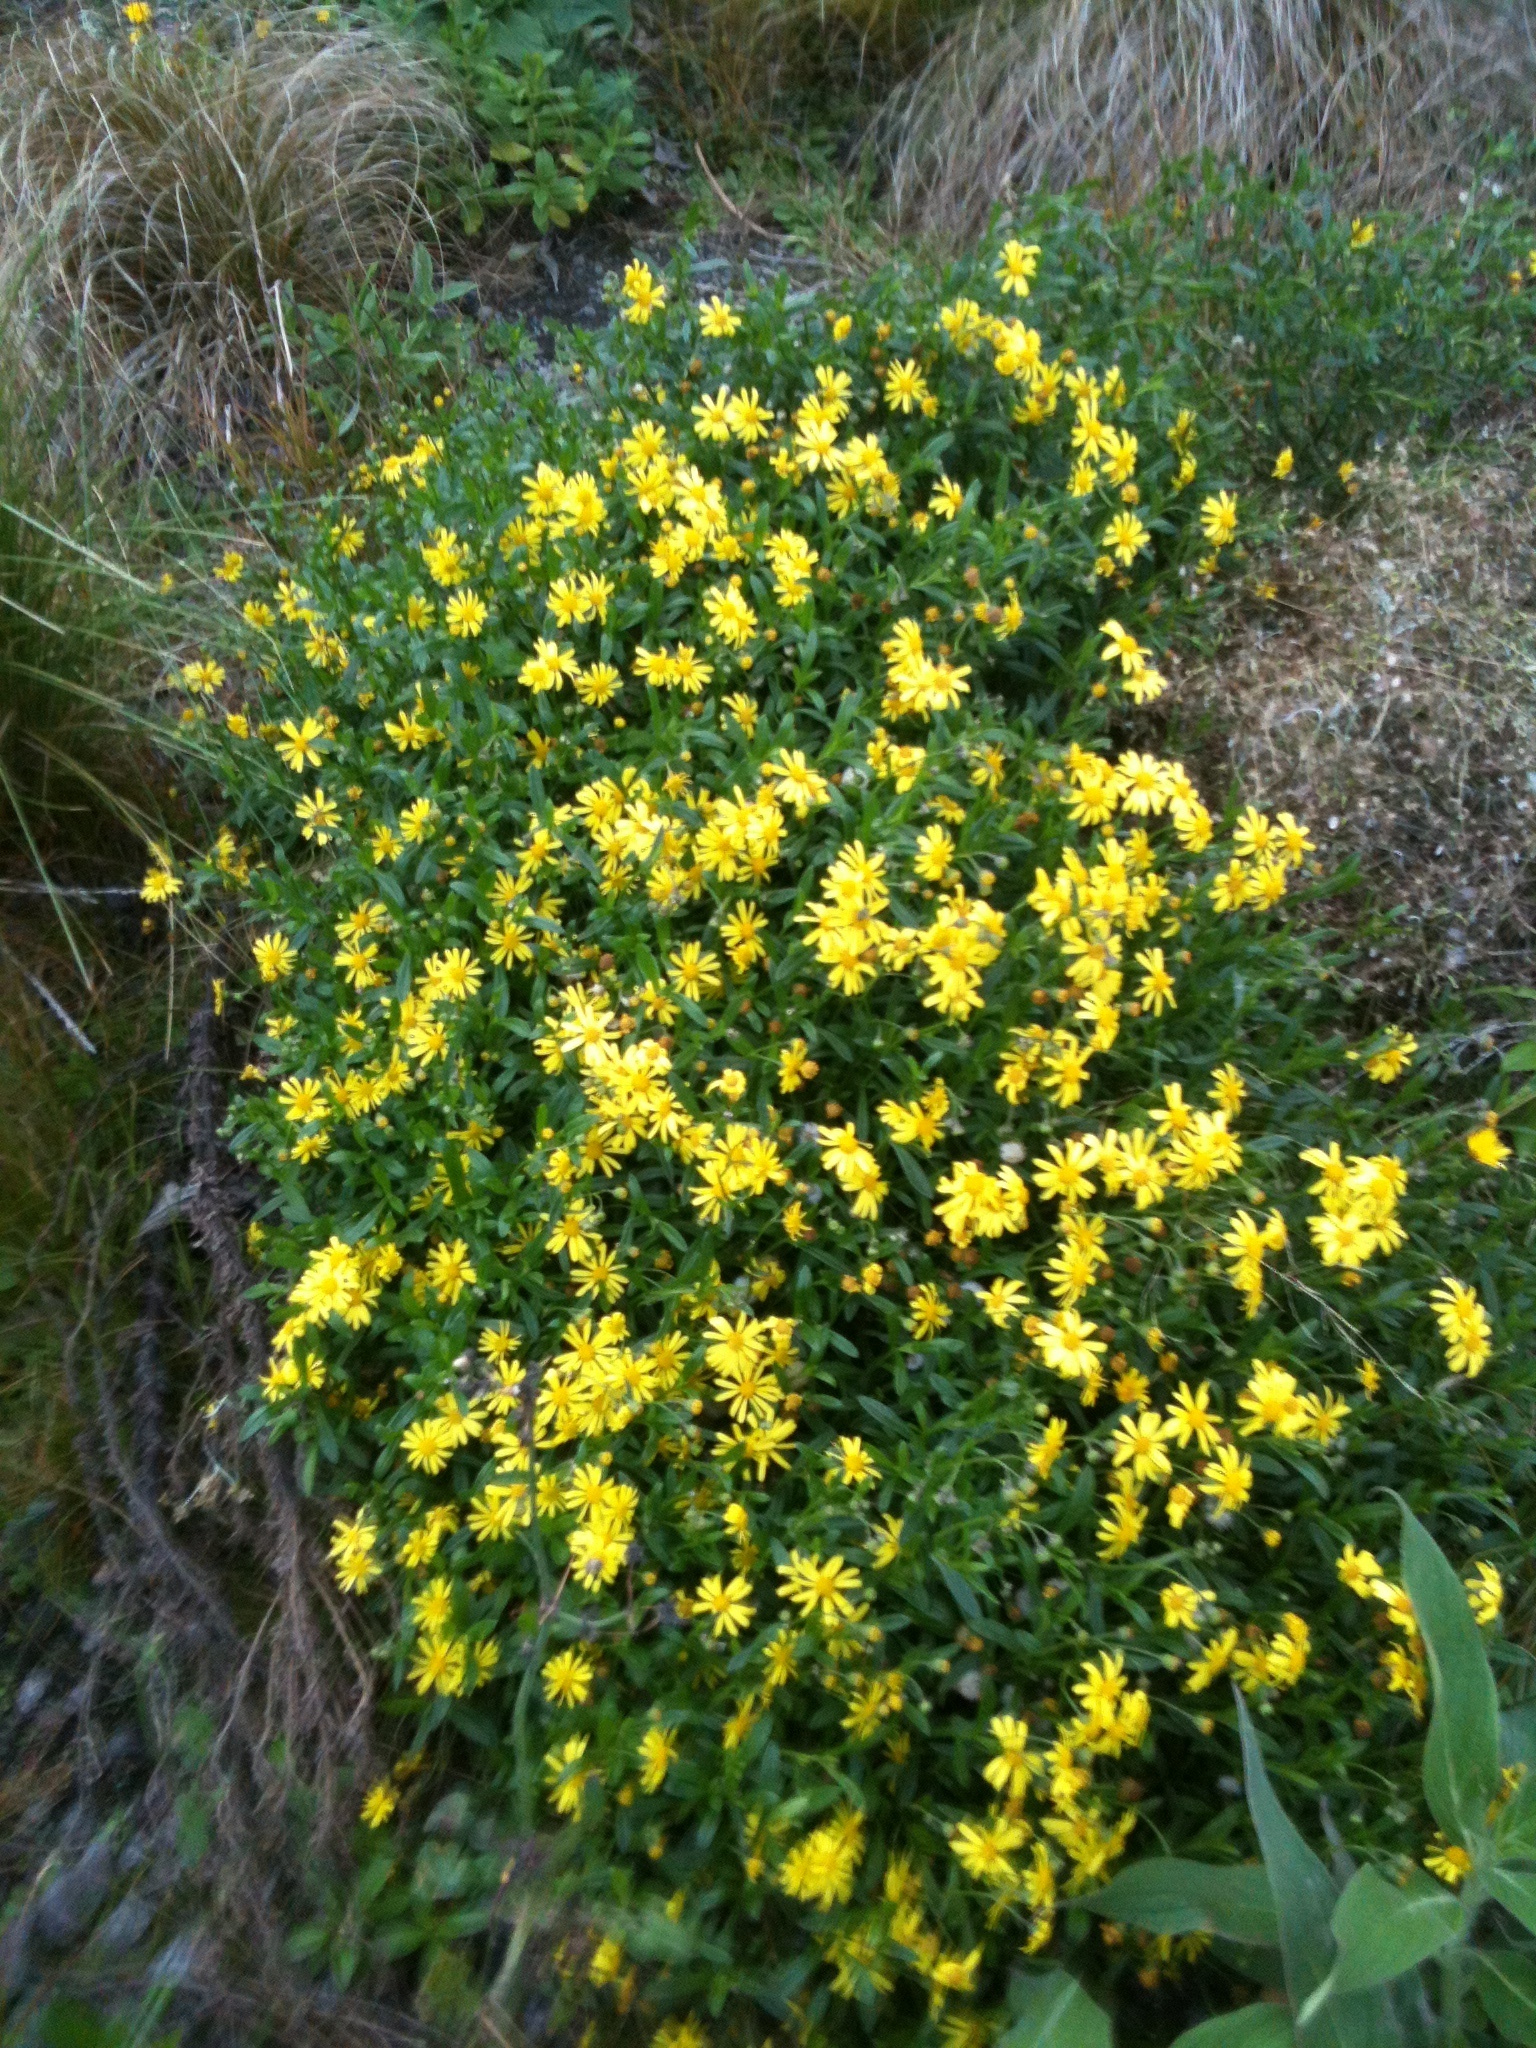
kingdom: Plantae
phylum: Tracheophyta
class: Magnoliopsida
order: Asterales
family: Asteraceae
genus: Senecio
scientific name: Senecio skirrhodon
